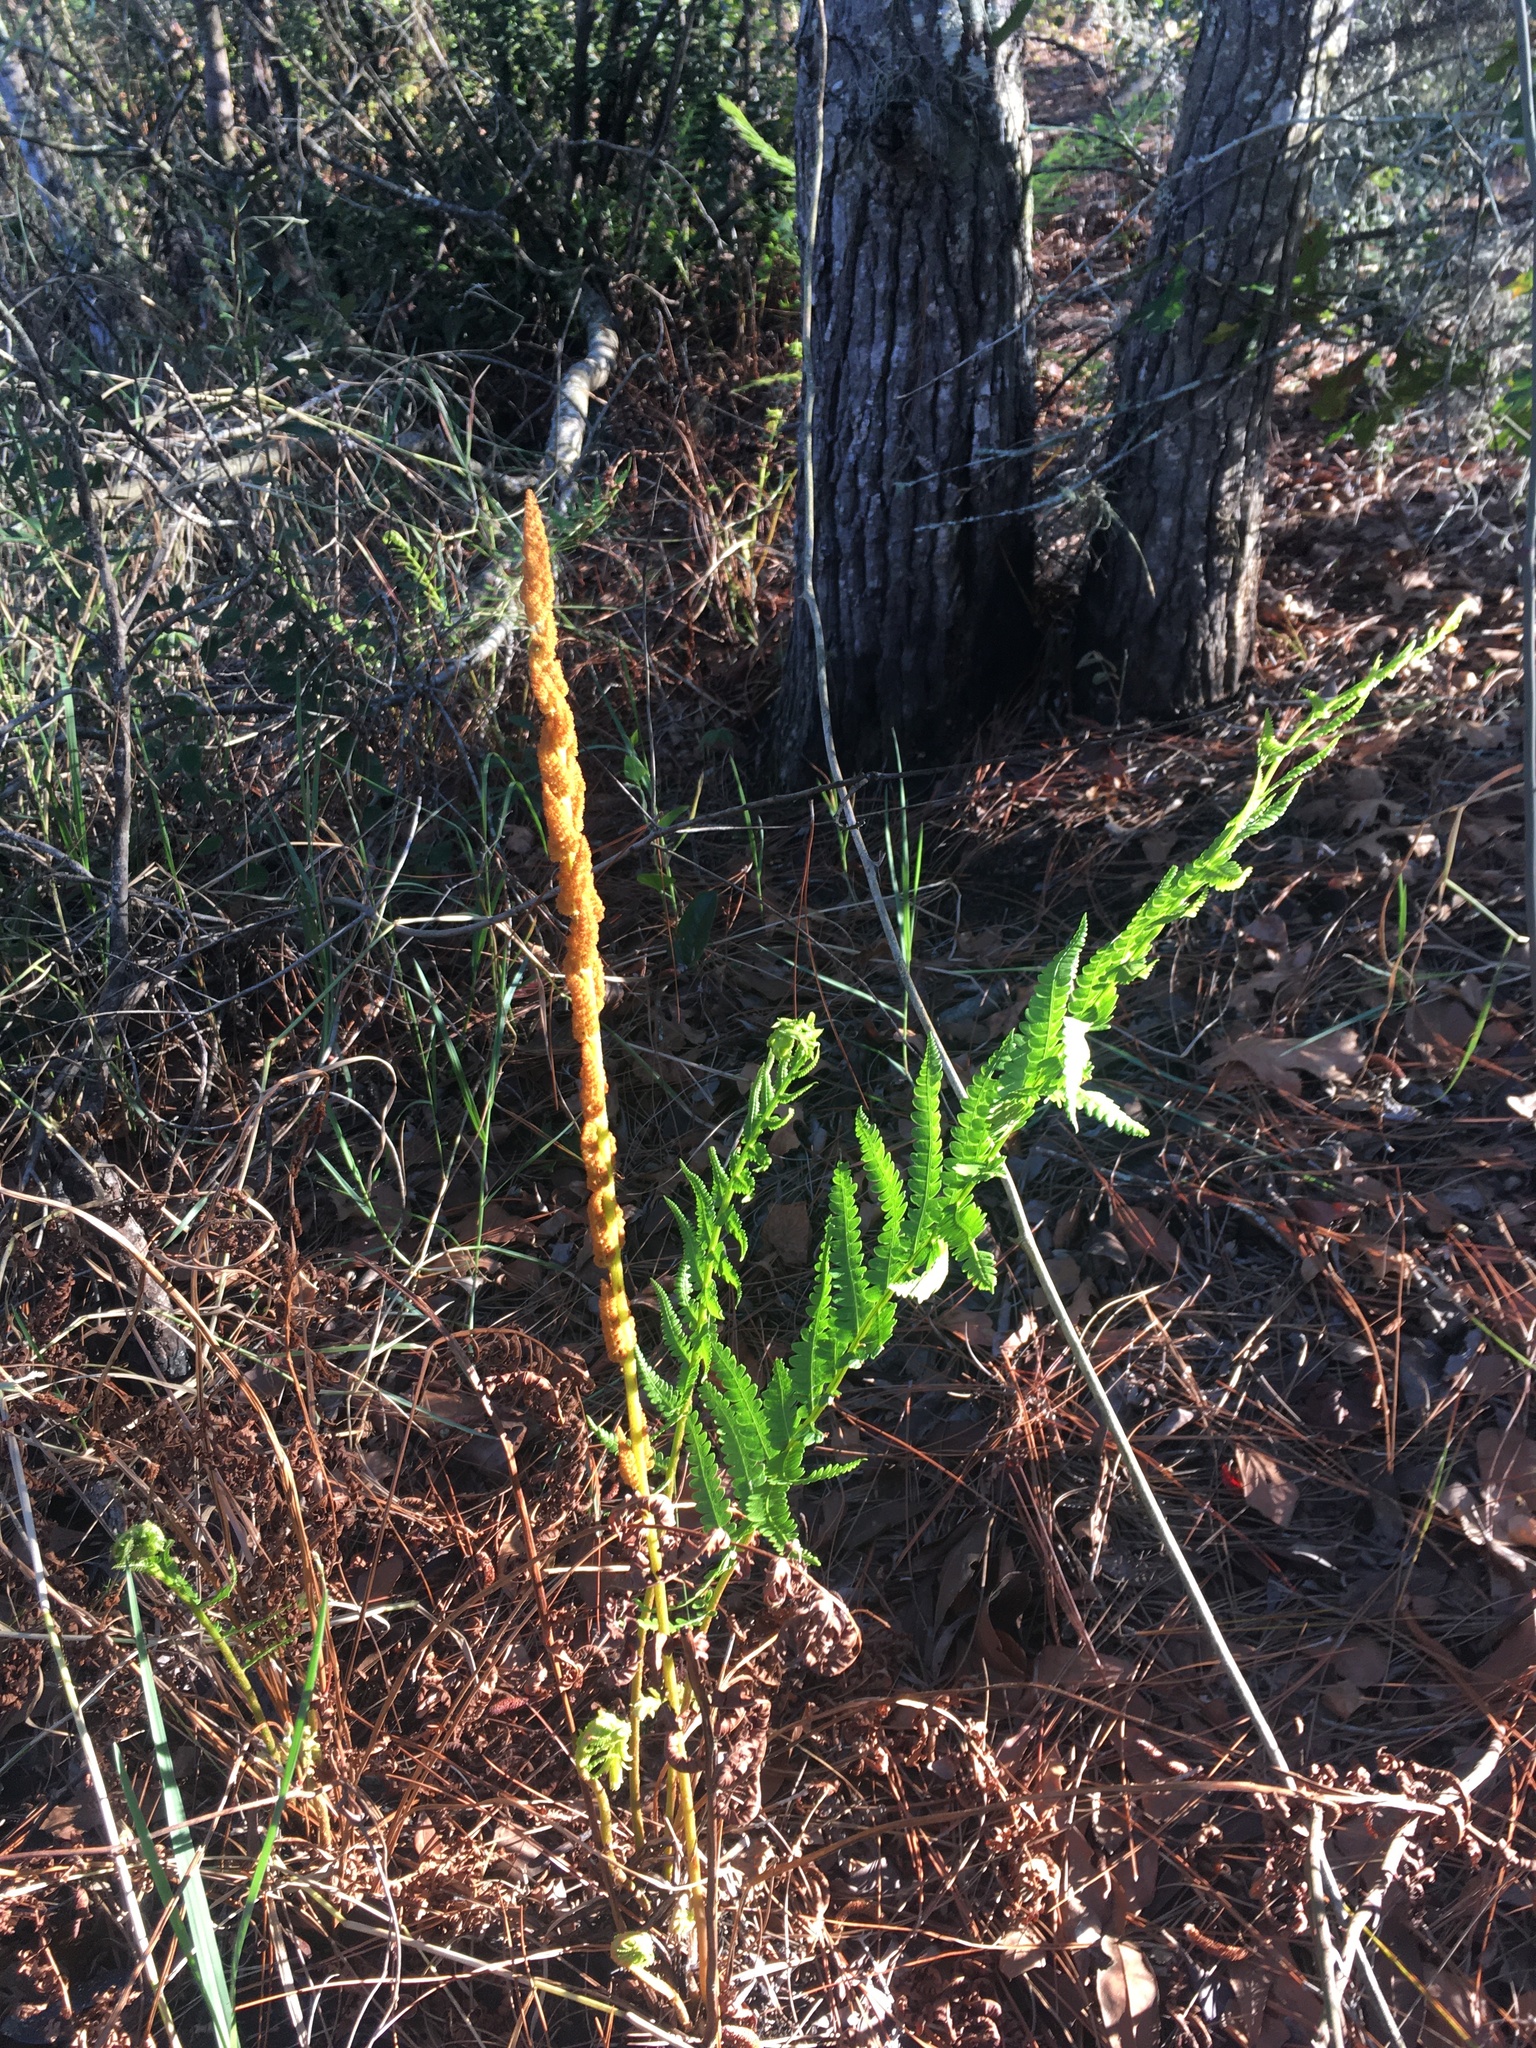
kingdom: Plantae
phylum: Tracheophyta
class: Polypodiopsida
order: Osmundales
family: Osmundaceae
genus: Osmundastrum
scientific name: Osmundastrum cinnamomeum
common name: Cinnamon fern
